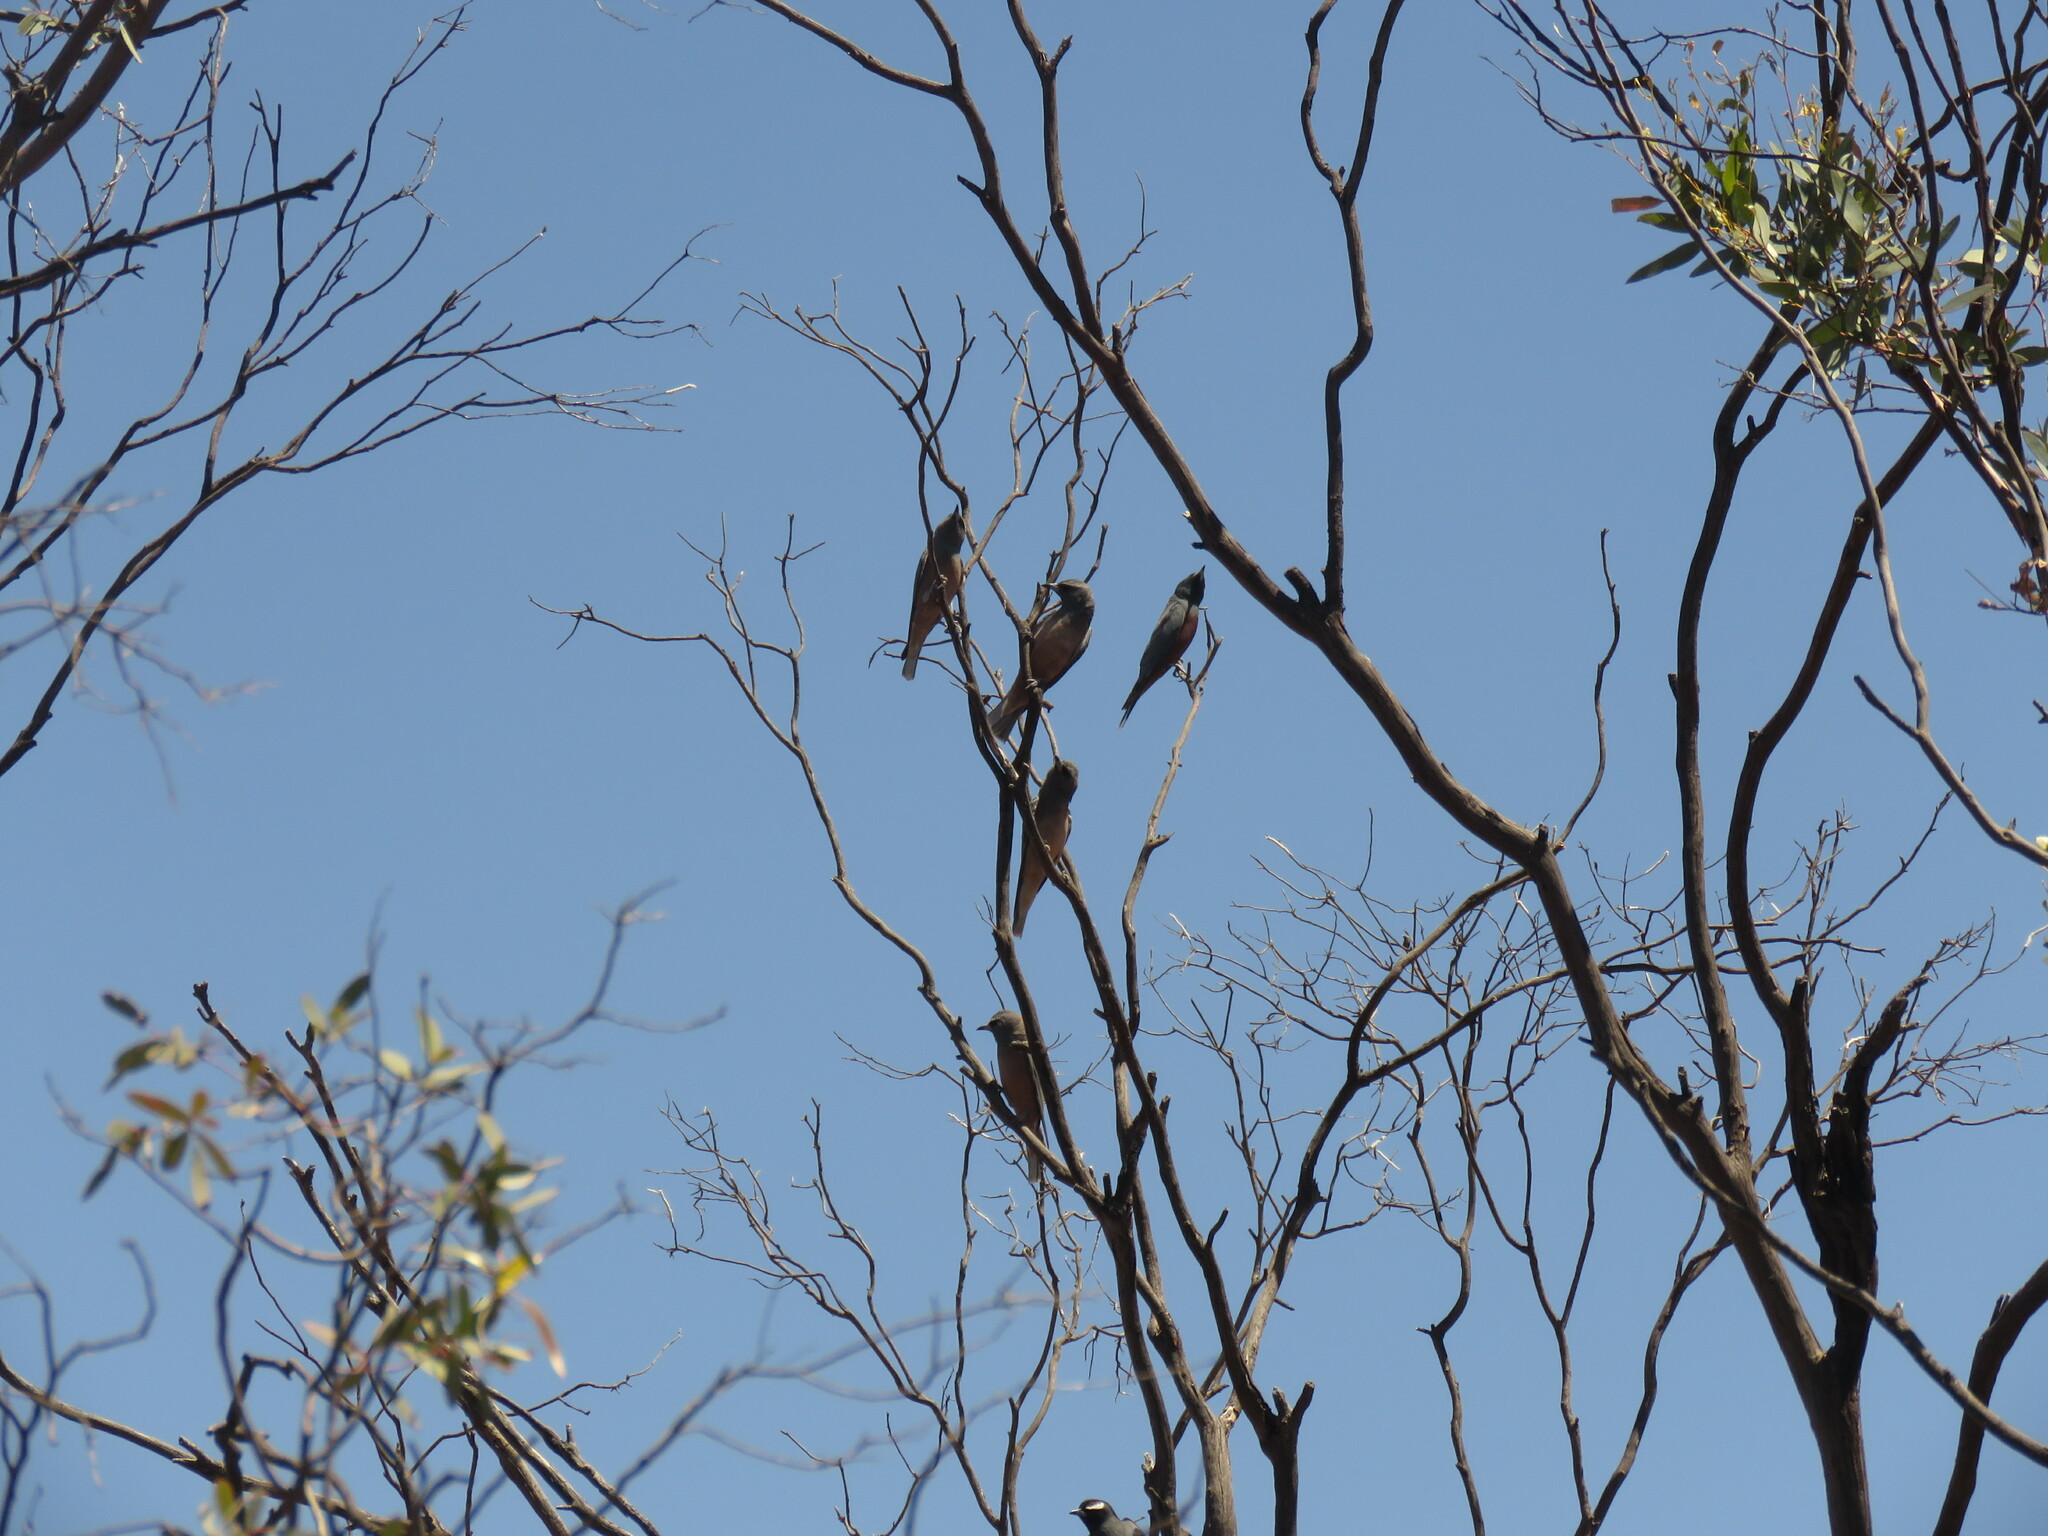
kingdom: Animalia
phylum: Chordata
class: Aves
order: Passeriformes
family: Artamidae
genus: Artamus
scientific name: Artamus personatus
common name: Masked woodswallow
